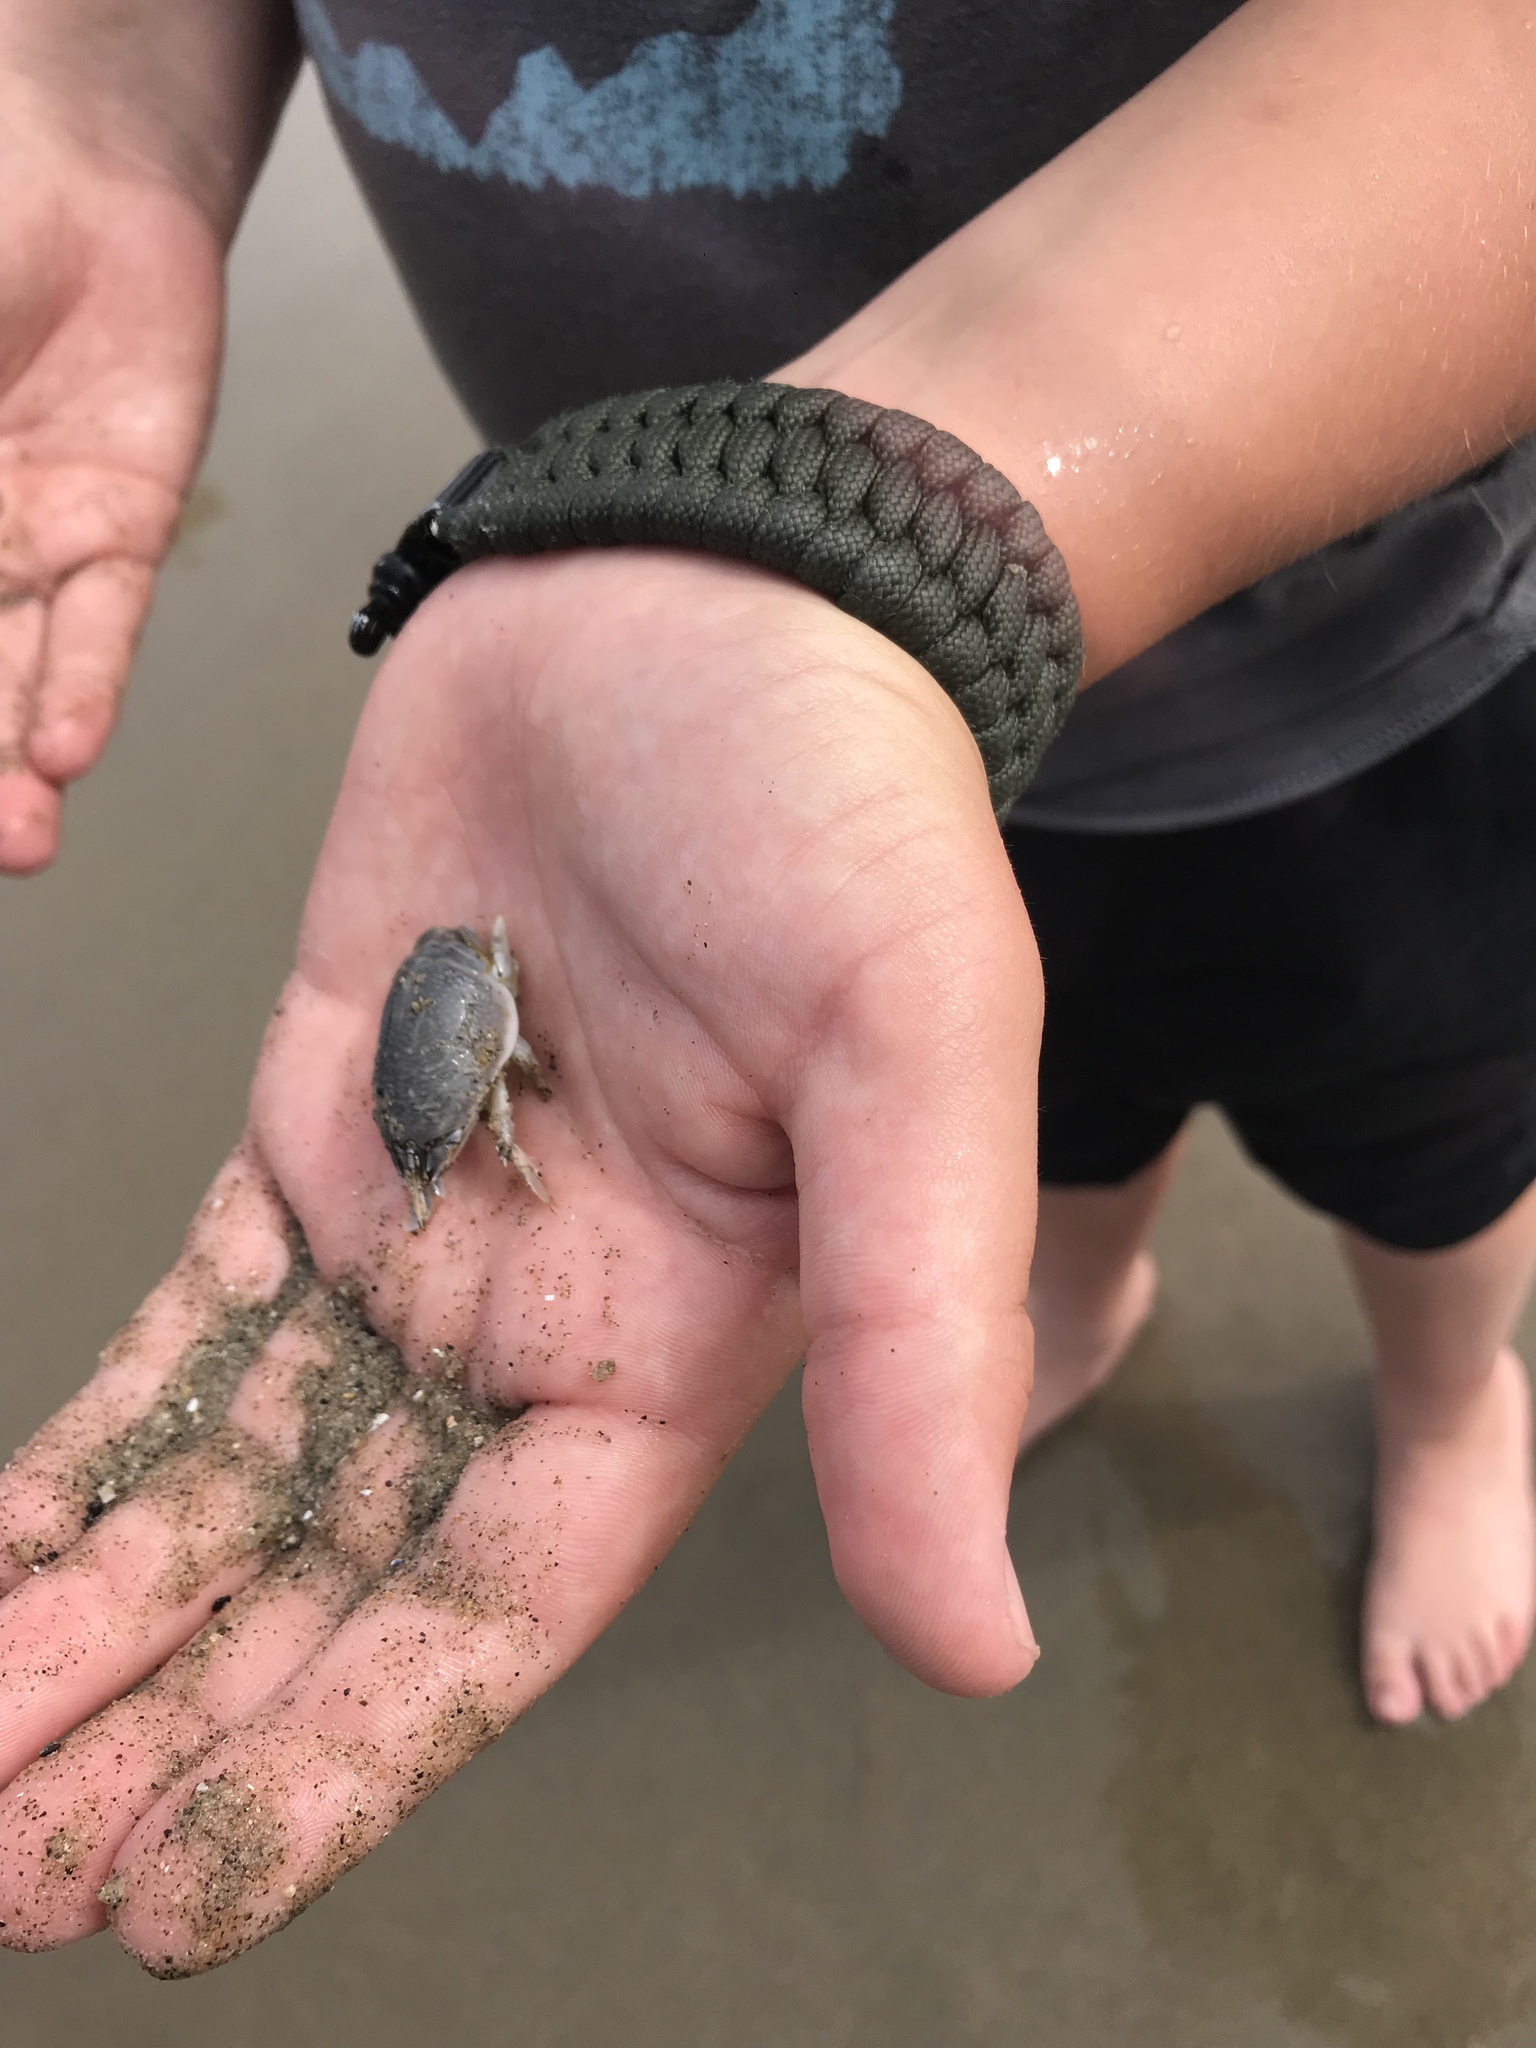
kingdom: Animalia
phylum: Arthropoda
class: Malacostraca
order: Decapoda
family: Hippidae
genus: Emerita
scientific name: Emerita analoga
